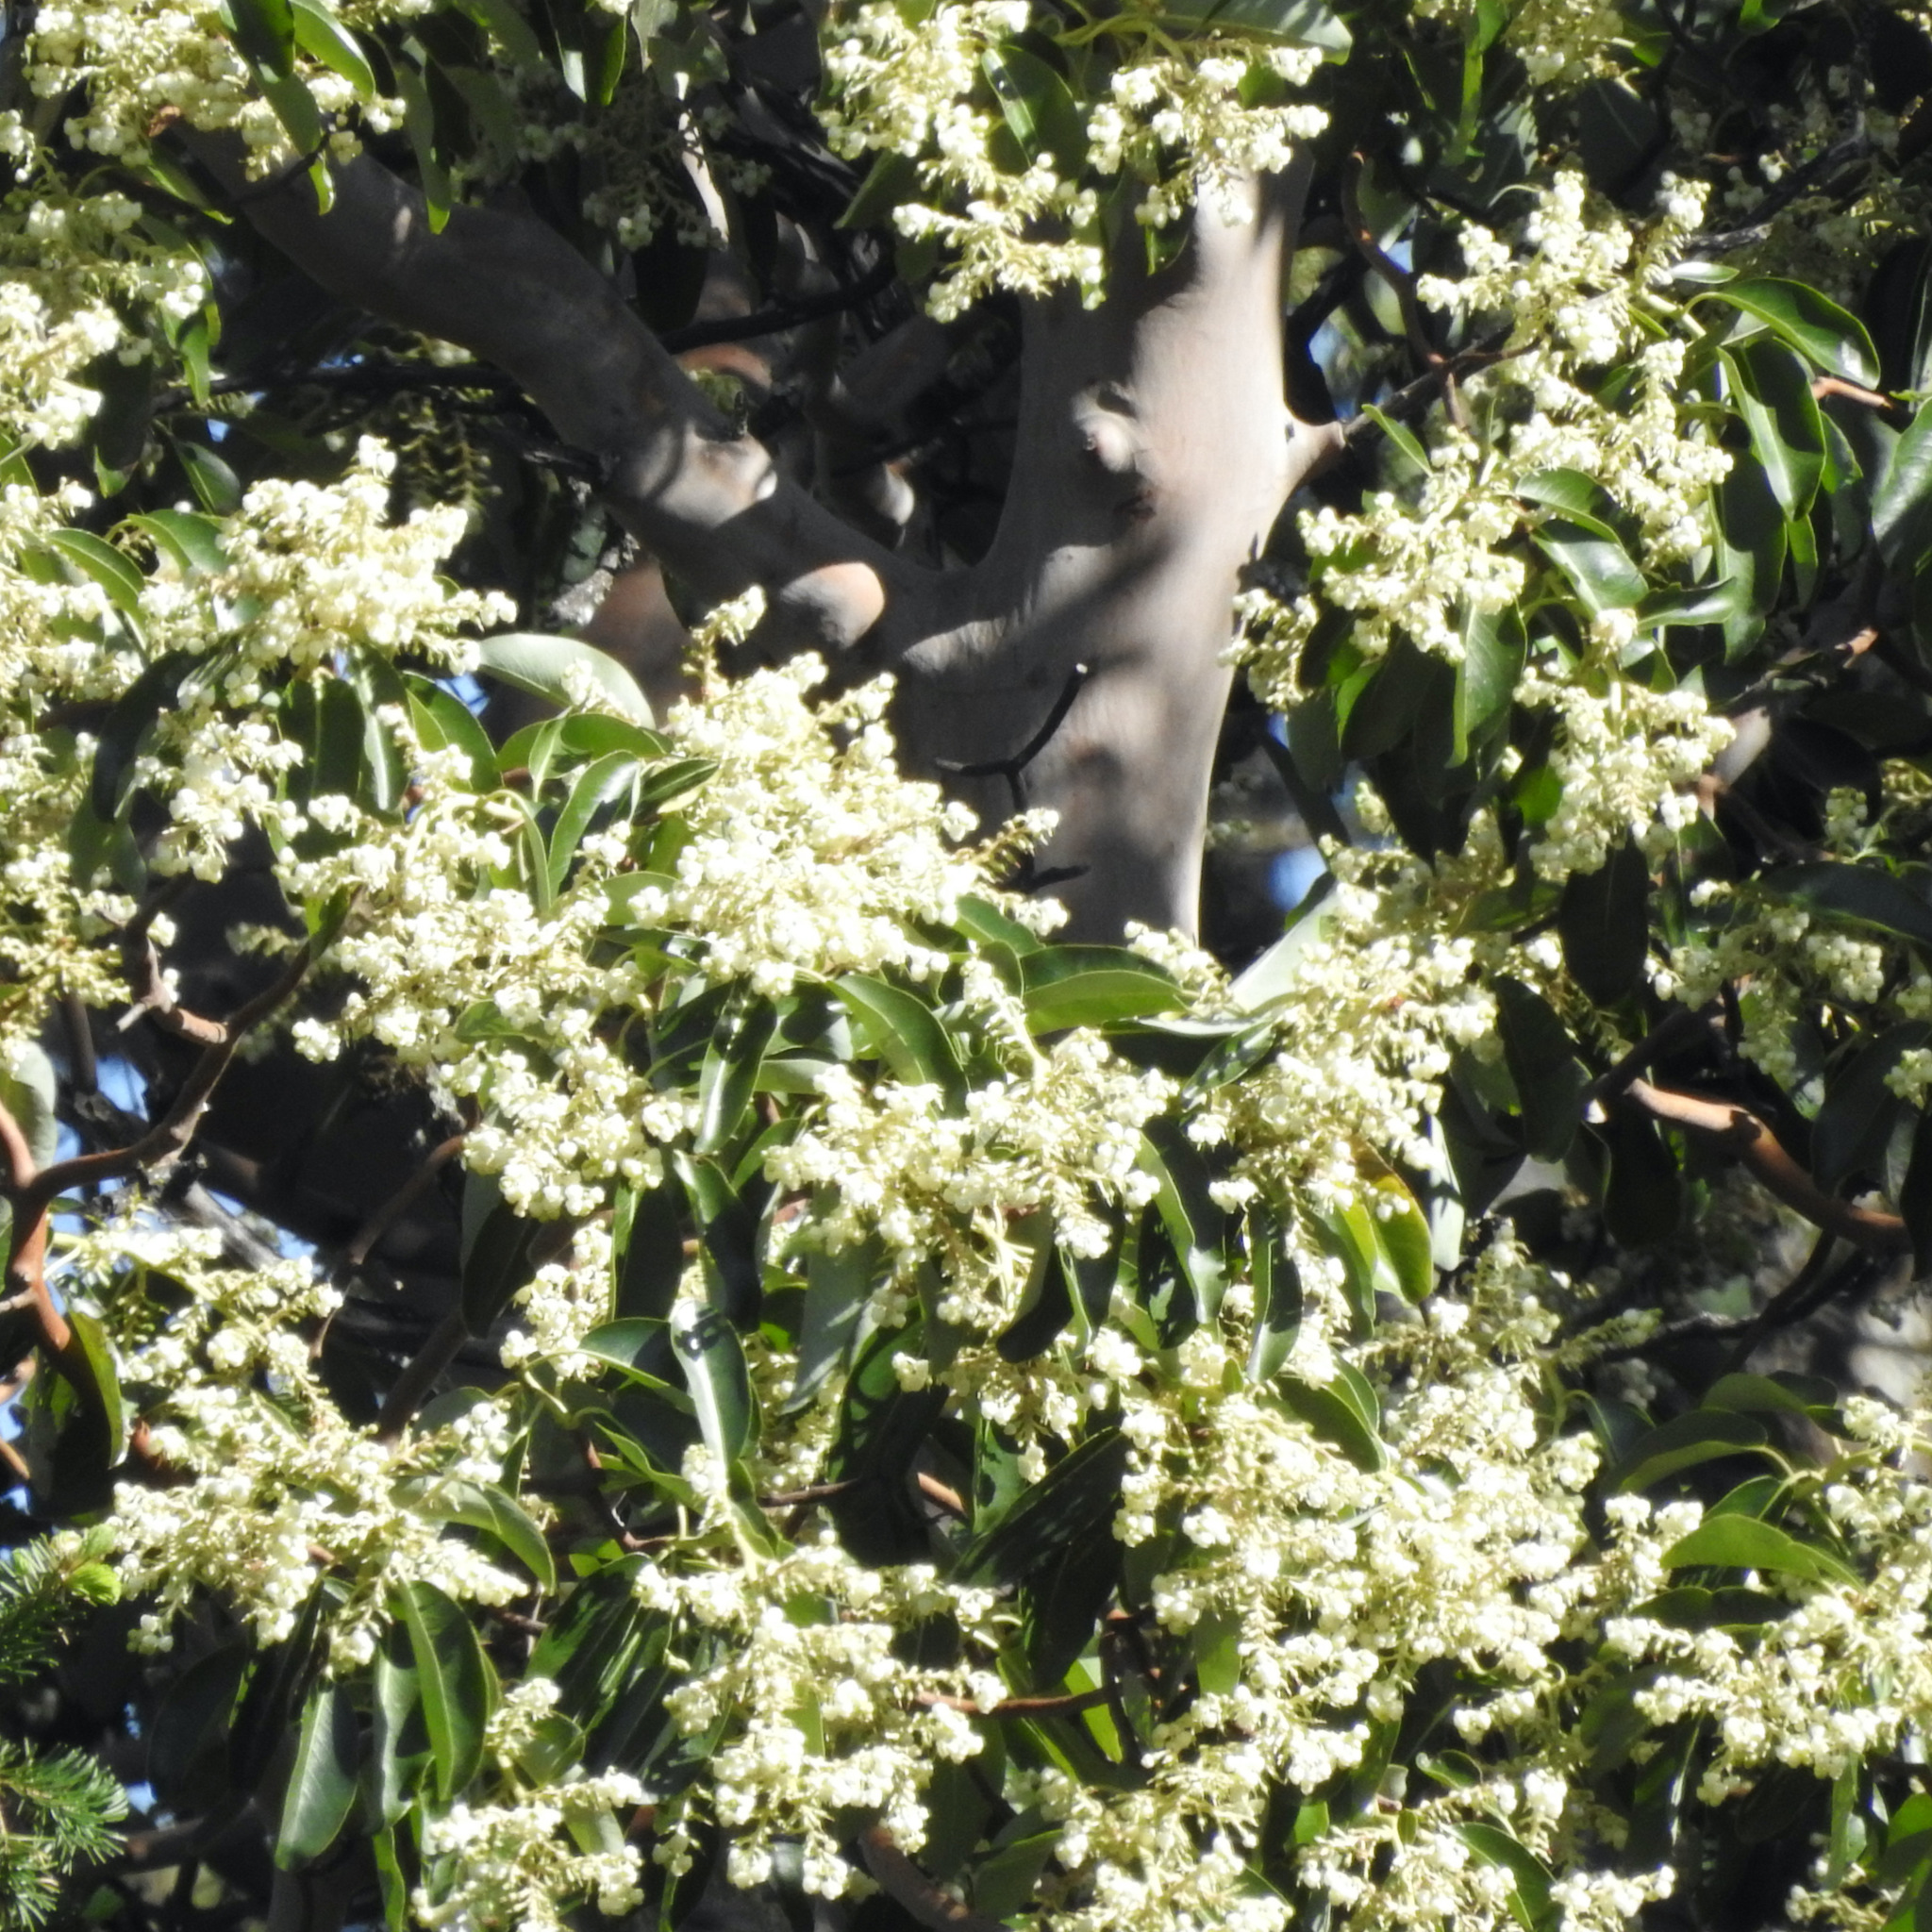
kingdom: Plantae
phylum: Tracheophyta
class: Magnoliopsida
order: Ericales
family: Ericaceae
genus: Arbutus
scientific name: Arbutus menziesii
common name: Pacific madrone
